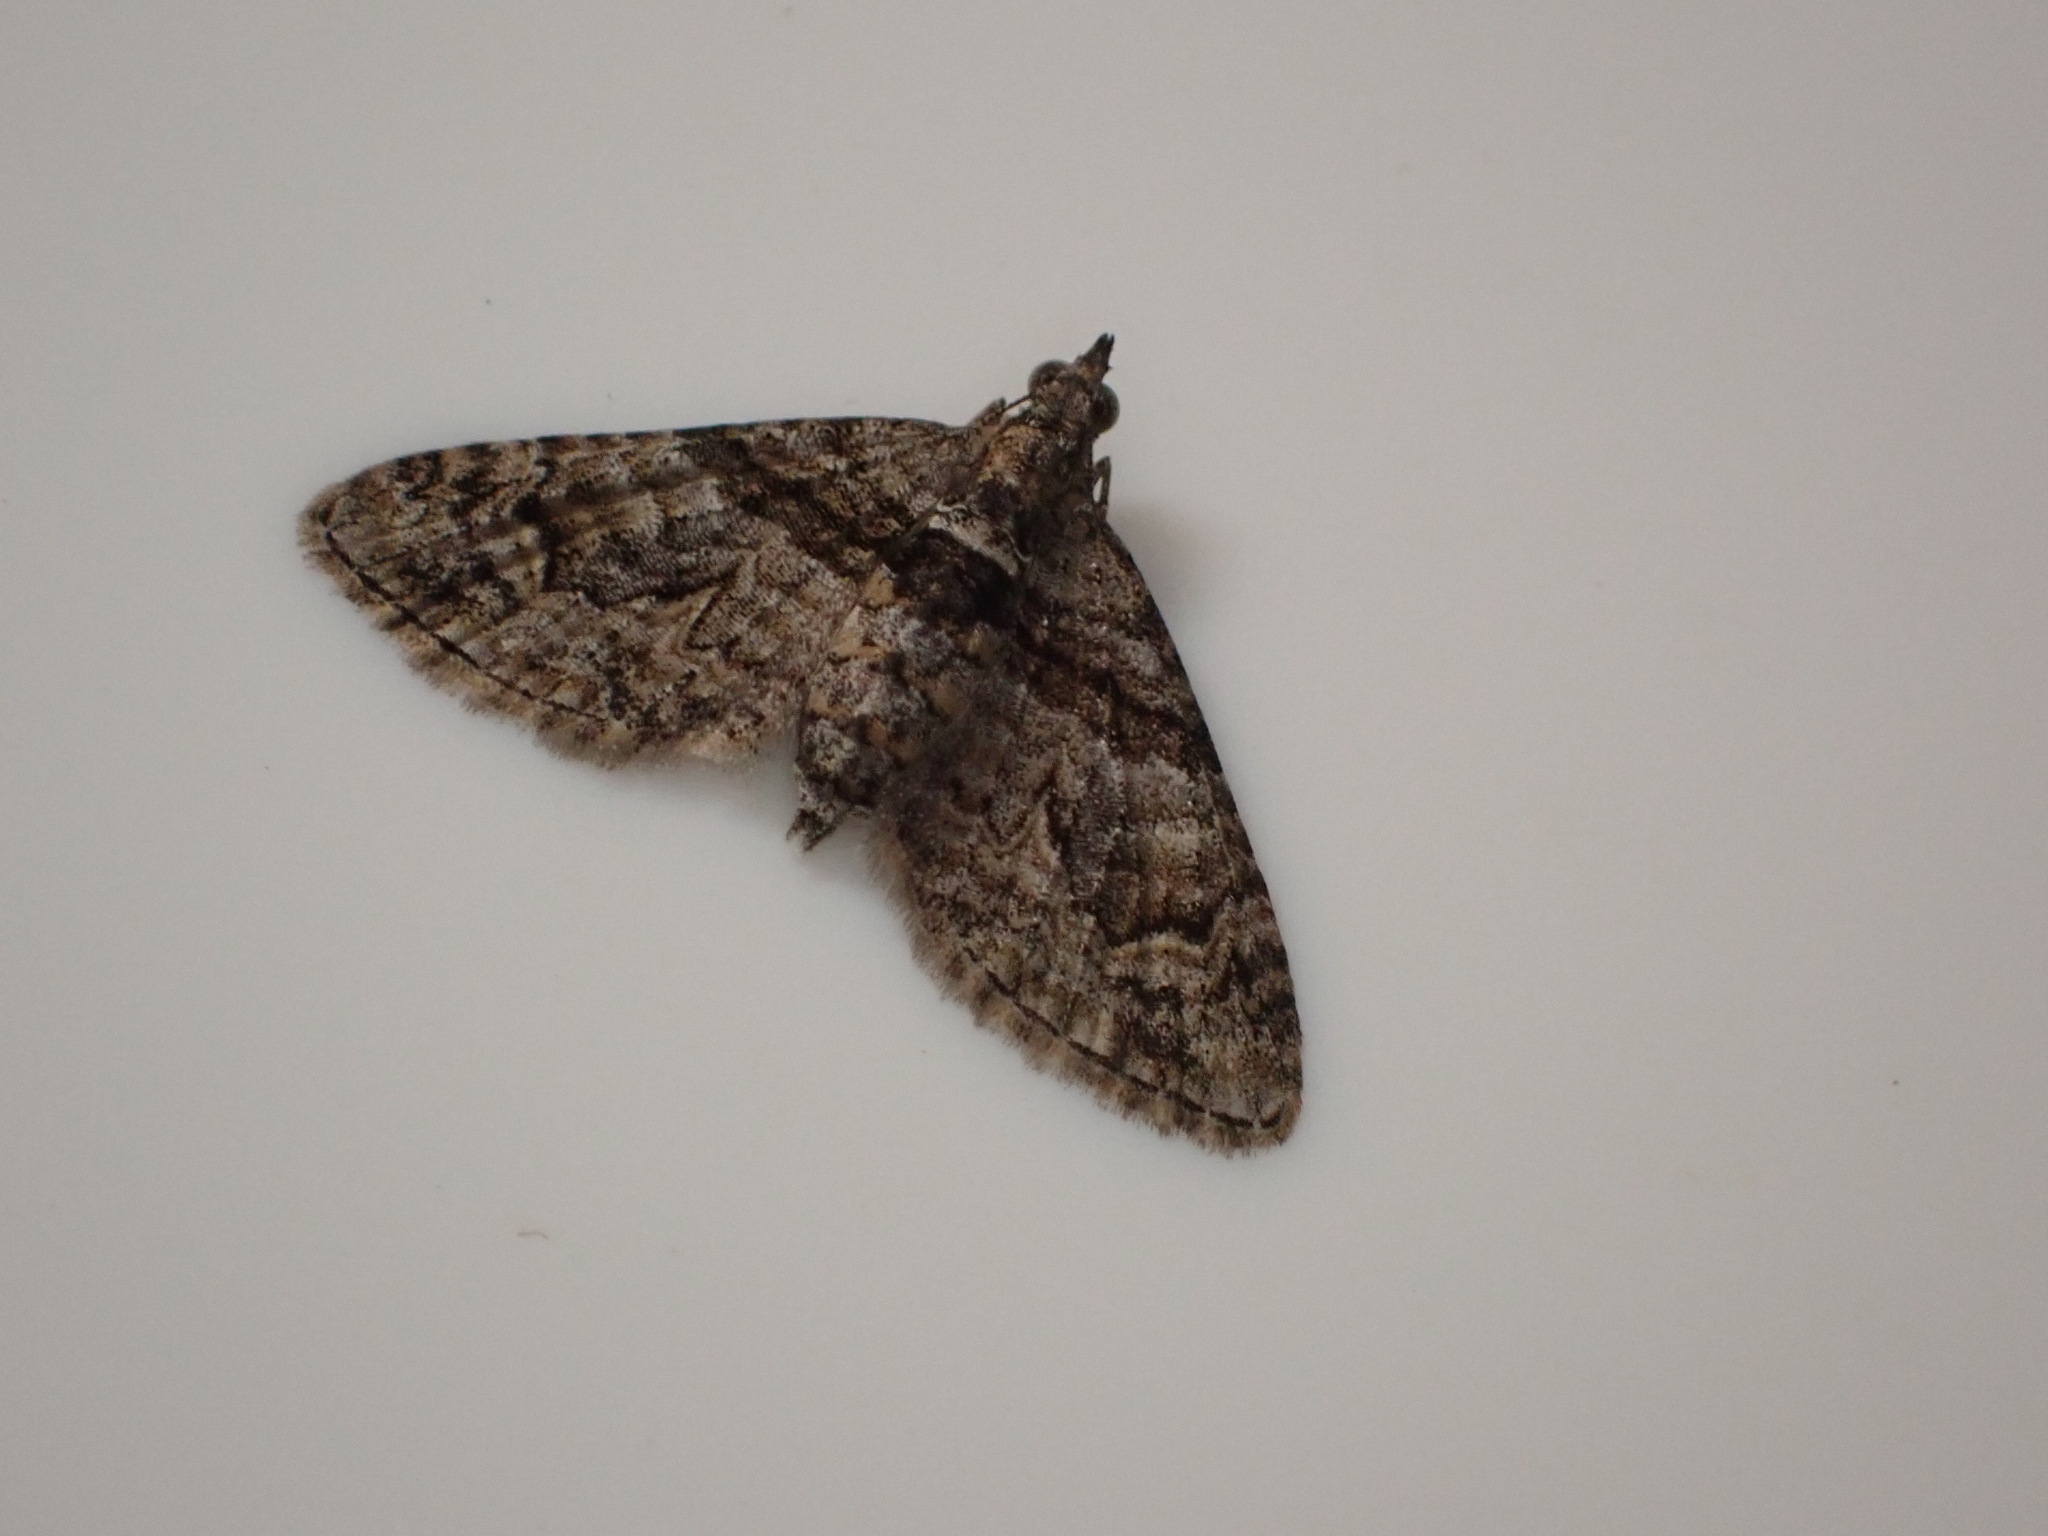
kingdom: Animalia
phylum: Arthropoda
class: Insecta
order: Lepidoptera
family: Geometridae
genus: Phrissogonus
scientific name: Phrissogonus laticostata
